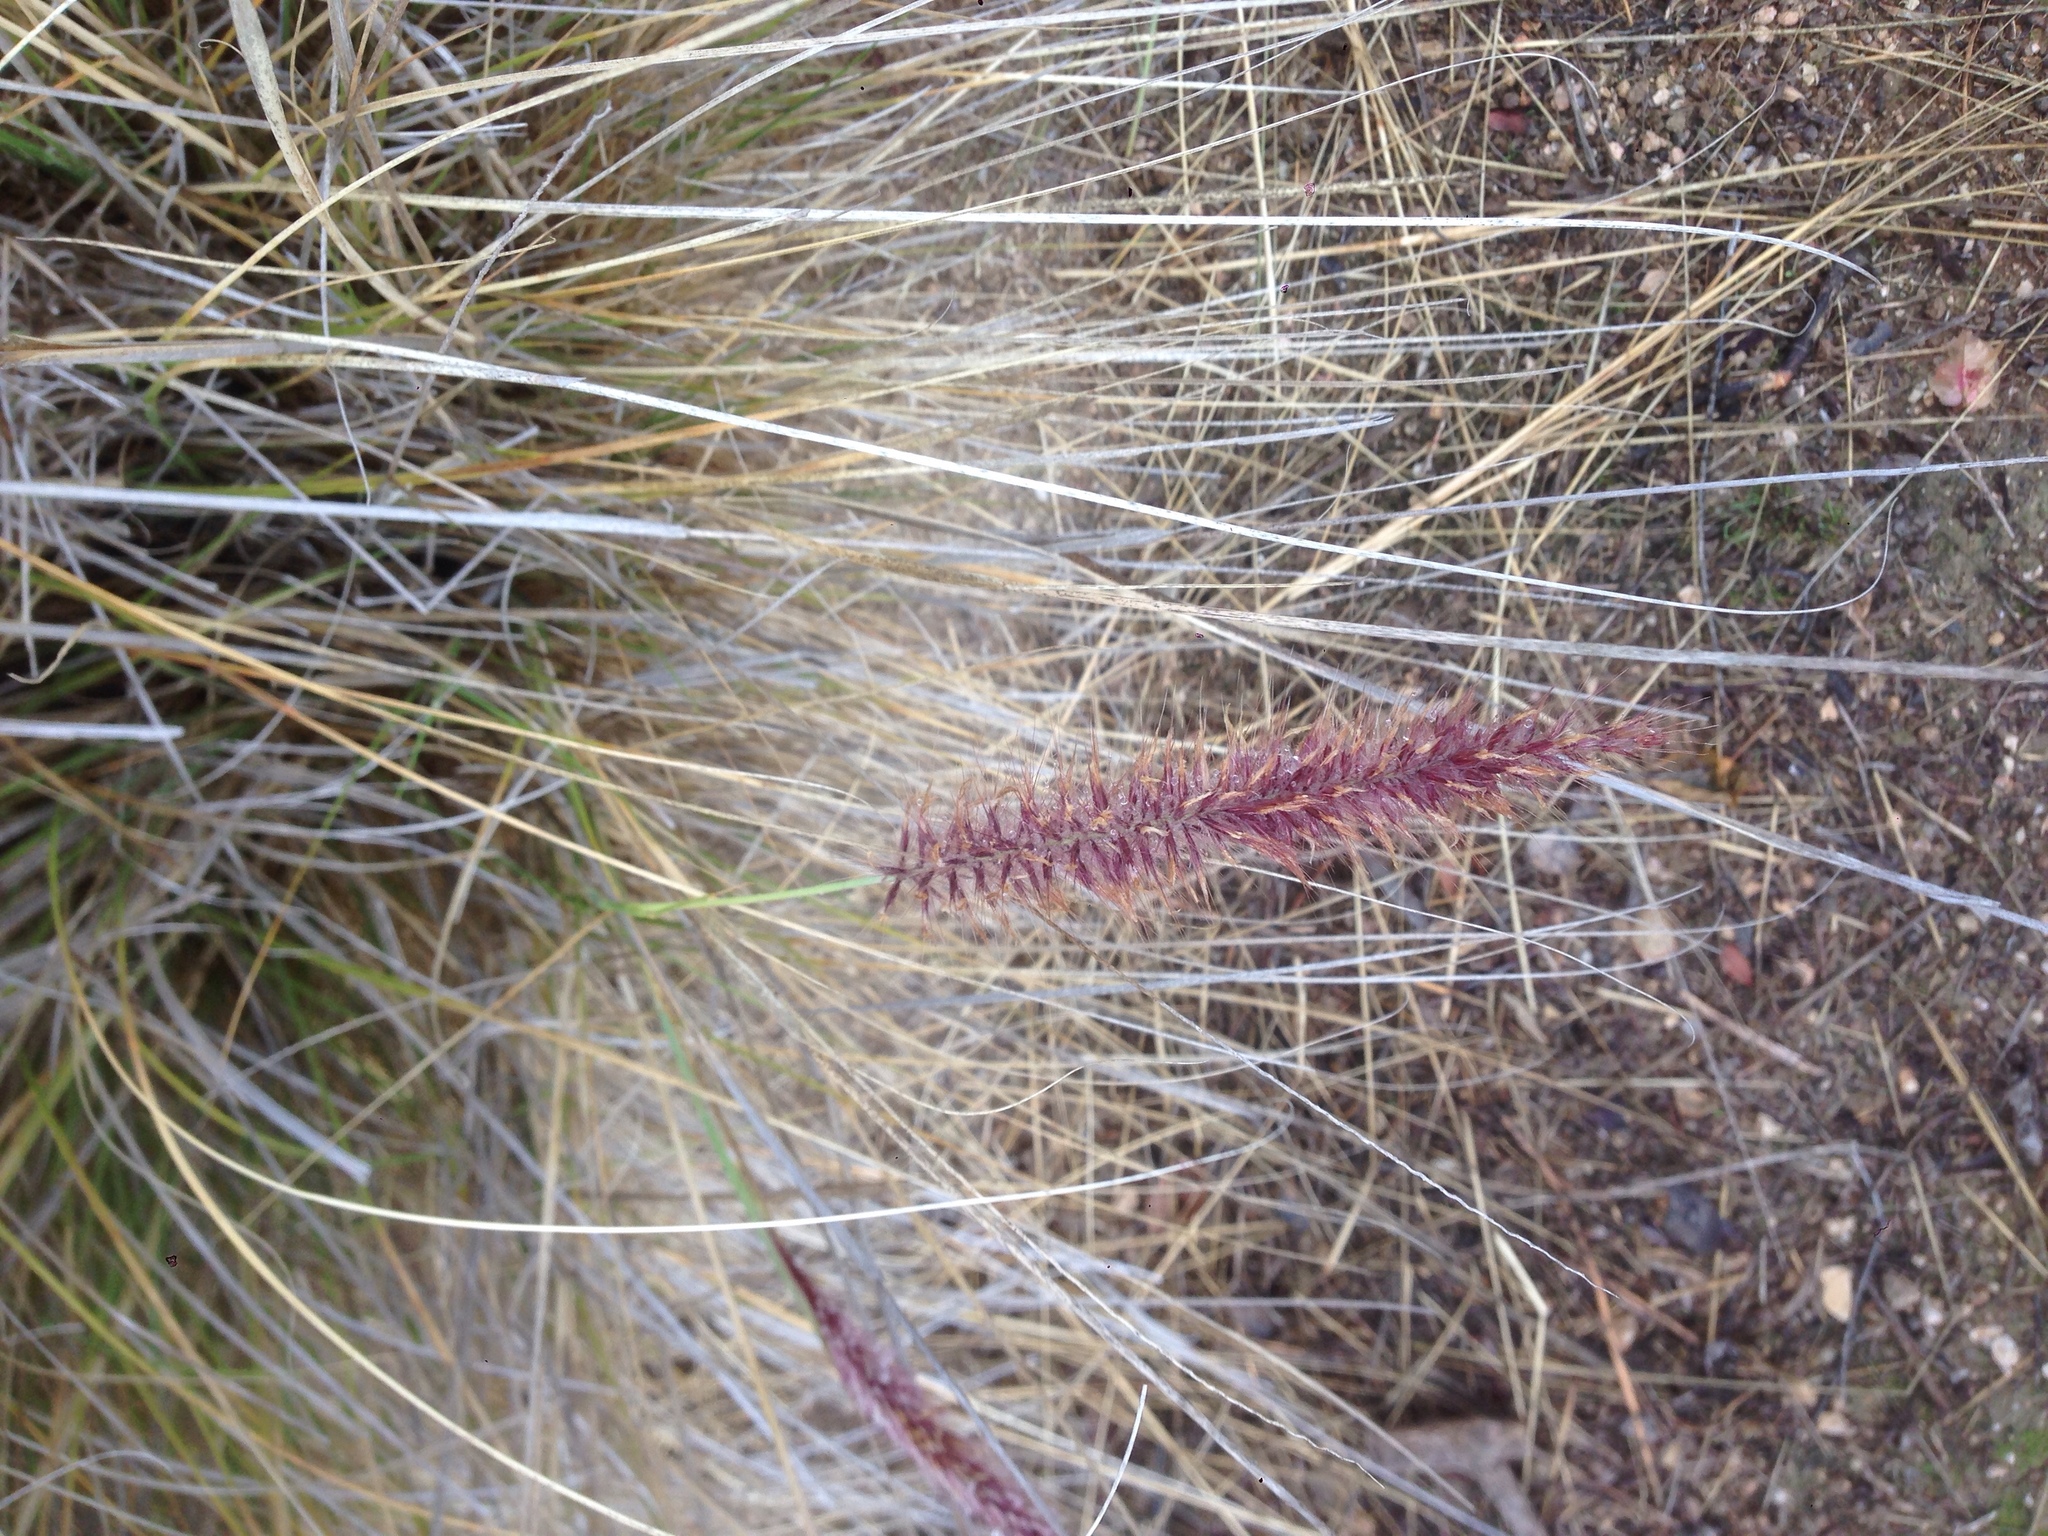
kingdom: Plantae
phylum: Tracheophyta
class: Liliopsida
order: Poales
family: Poaceae
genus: Cenchrus
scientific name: Cenchrus setaceus
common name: Crimson fountaingrass
